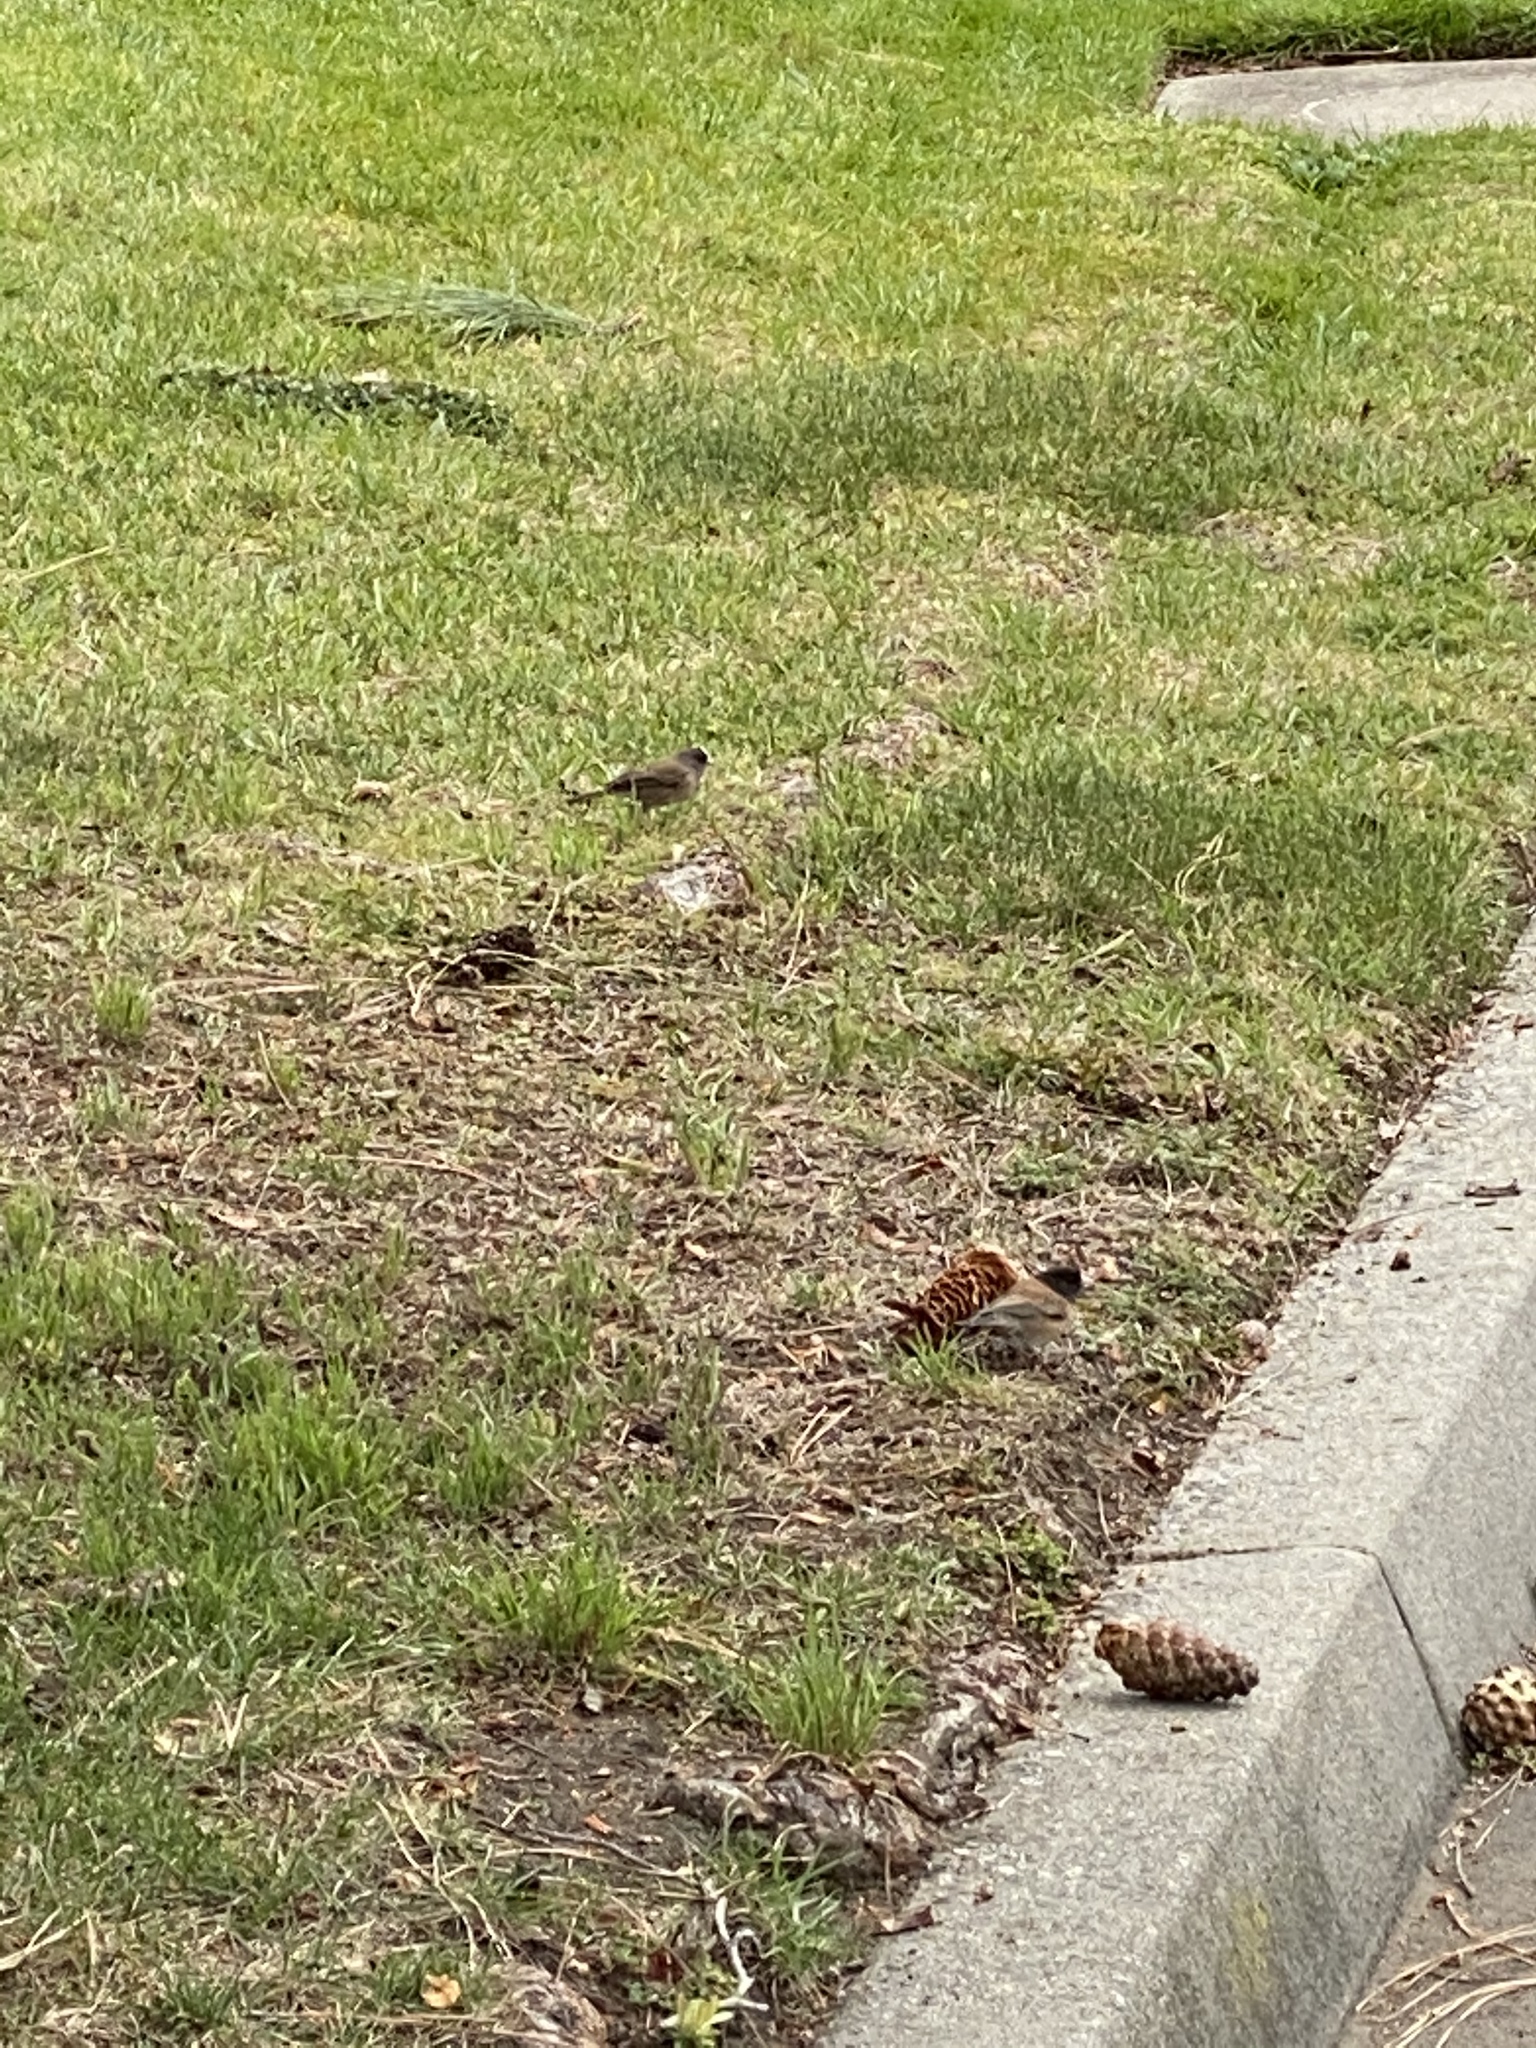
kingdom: Animalia
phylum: Chordata
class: Aves
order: Passeriformes
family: Passerellidae
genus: Junco
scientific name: Junco hyemalis
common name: Dark-eyed junco
